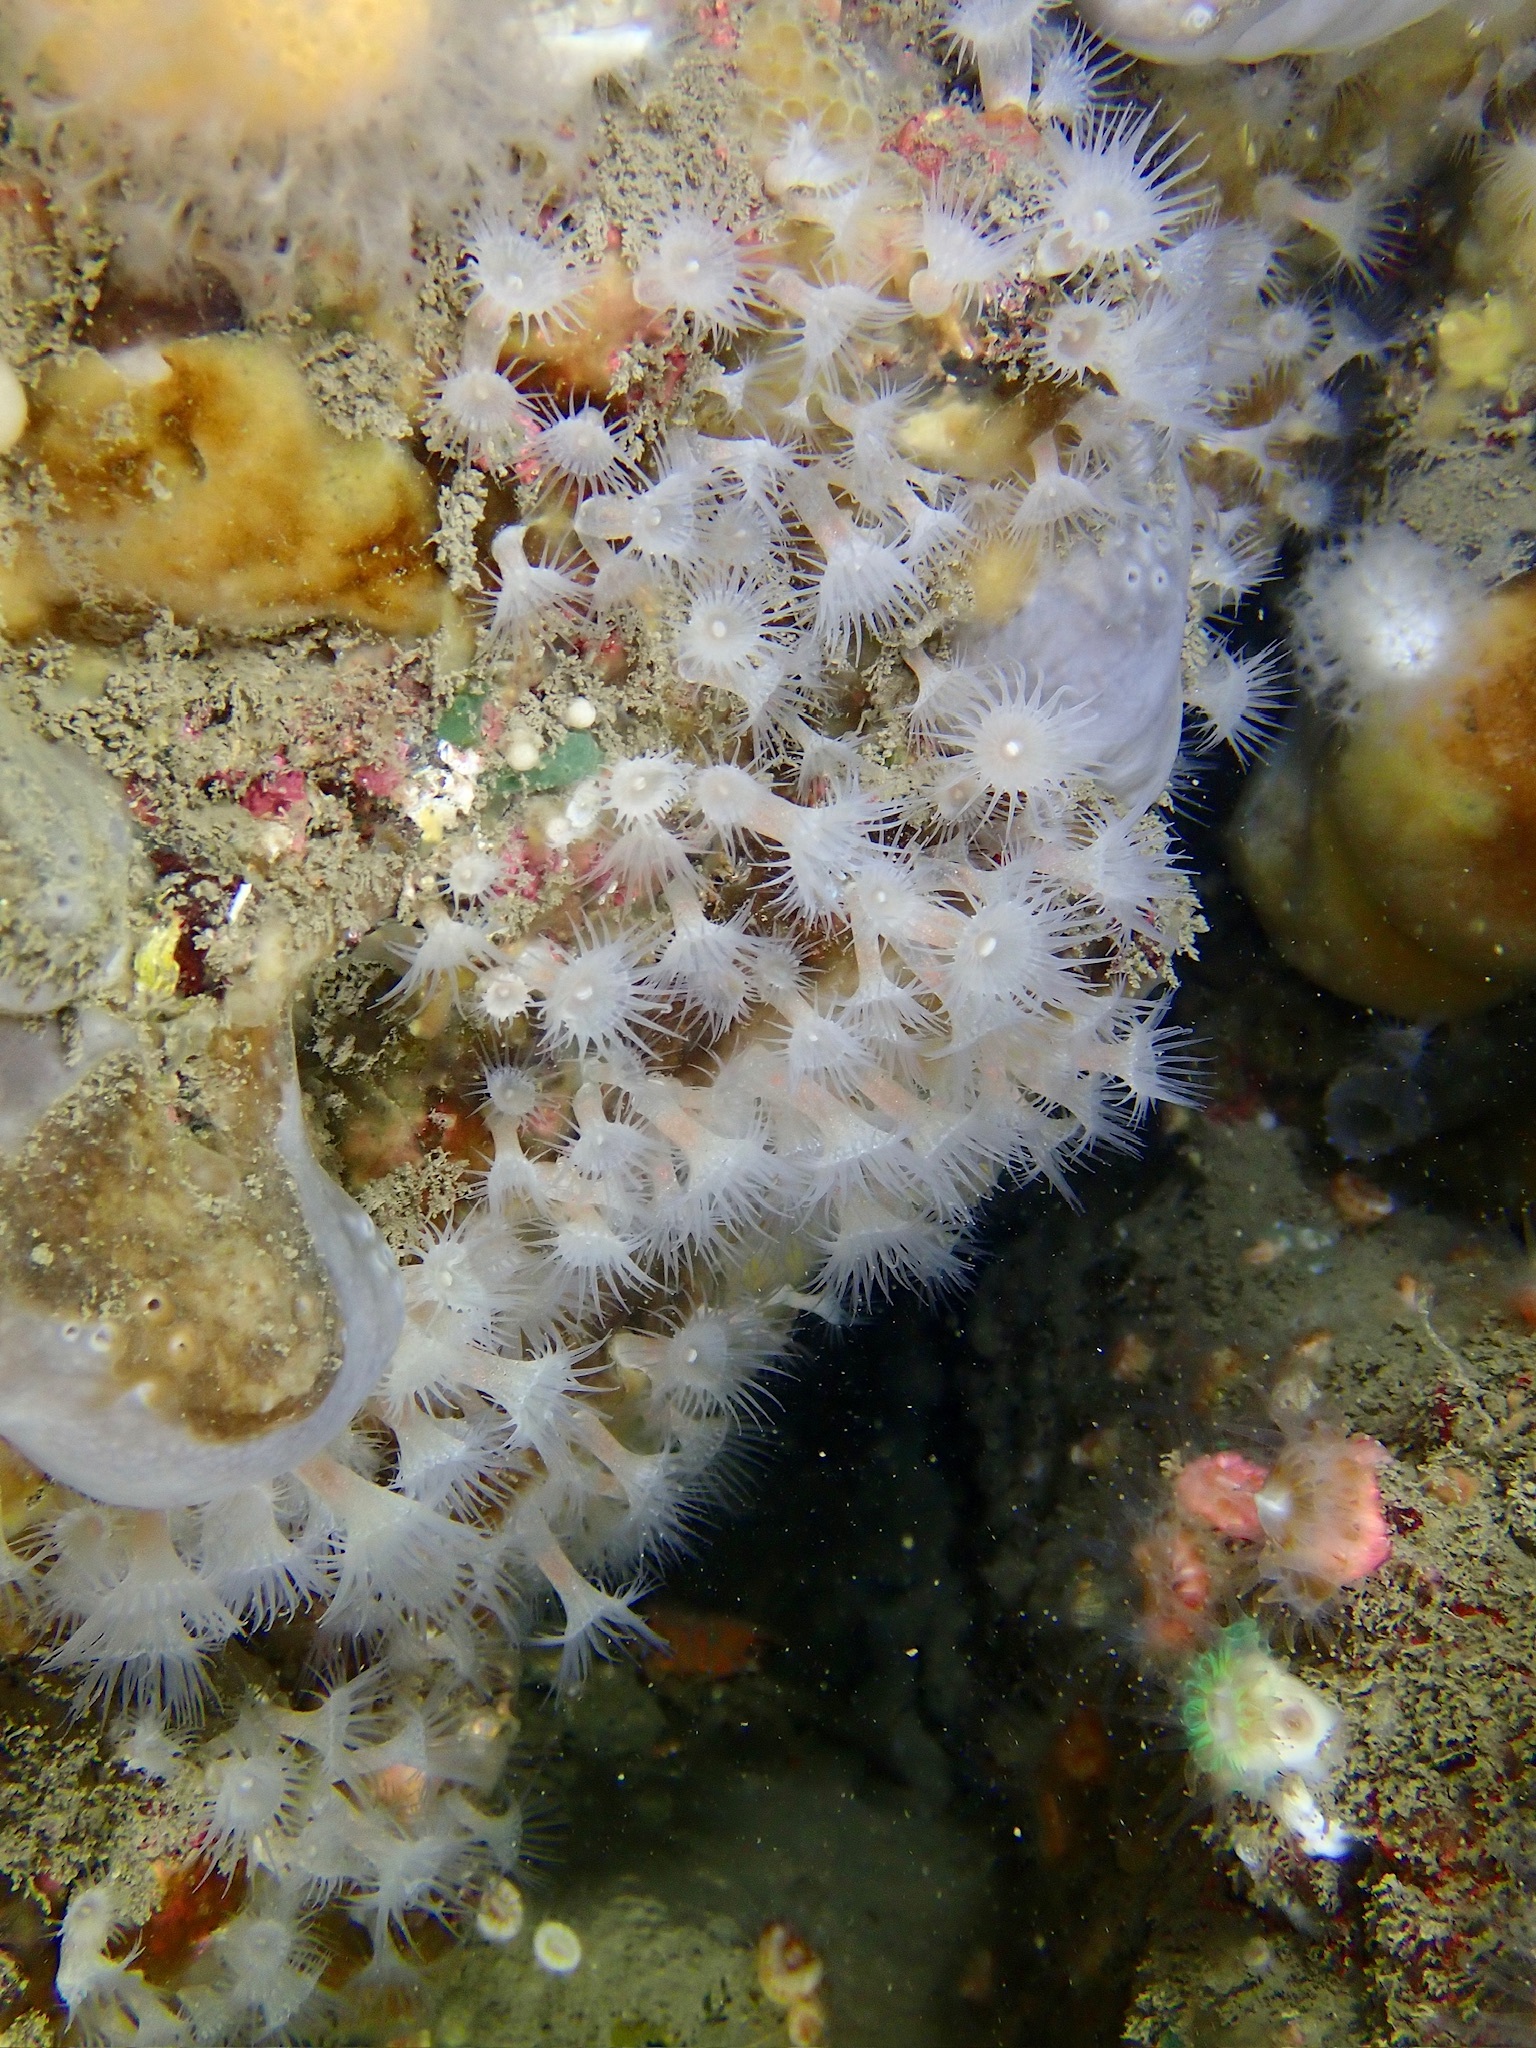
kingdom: Animalia
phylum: Cnidaria
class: Anthozoa
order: Zoantharia
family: Parazoanthidae
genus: Parazoanthus
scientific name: Parazoanthus anguicomus
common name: White cluster anemone
